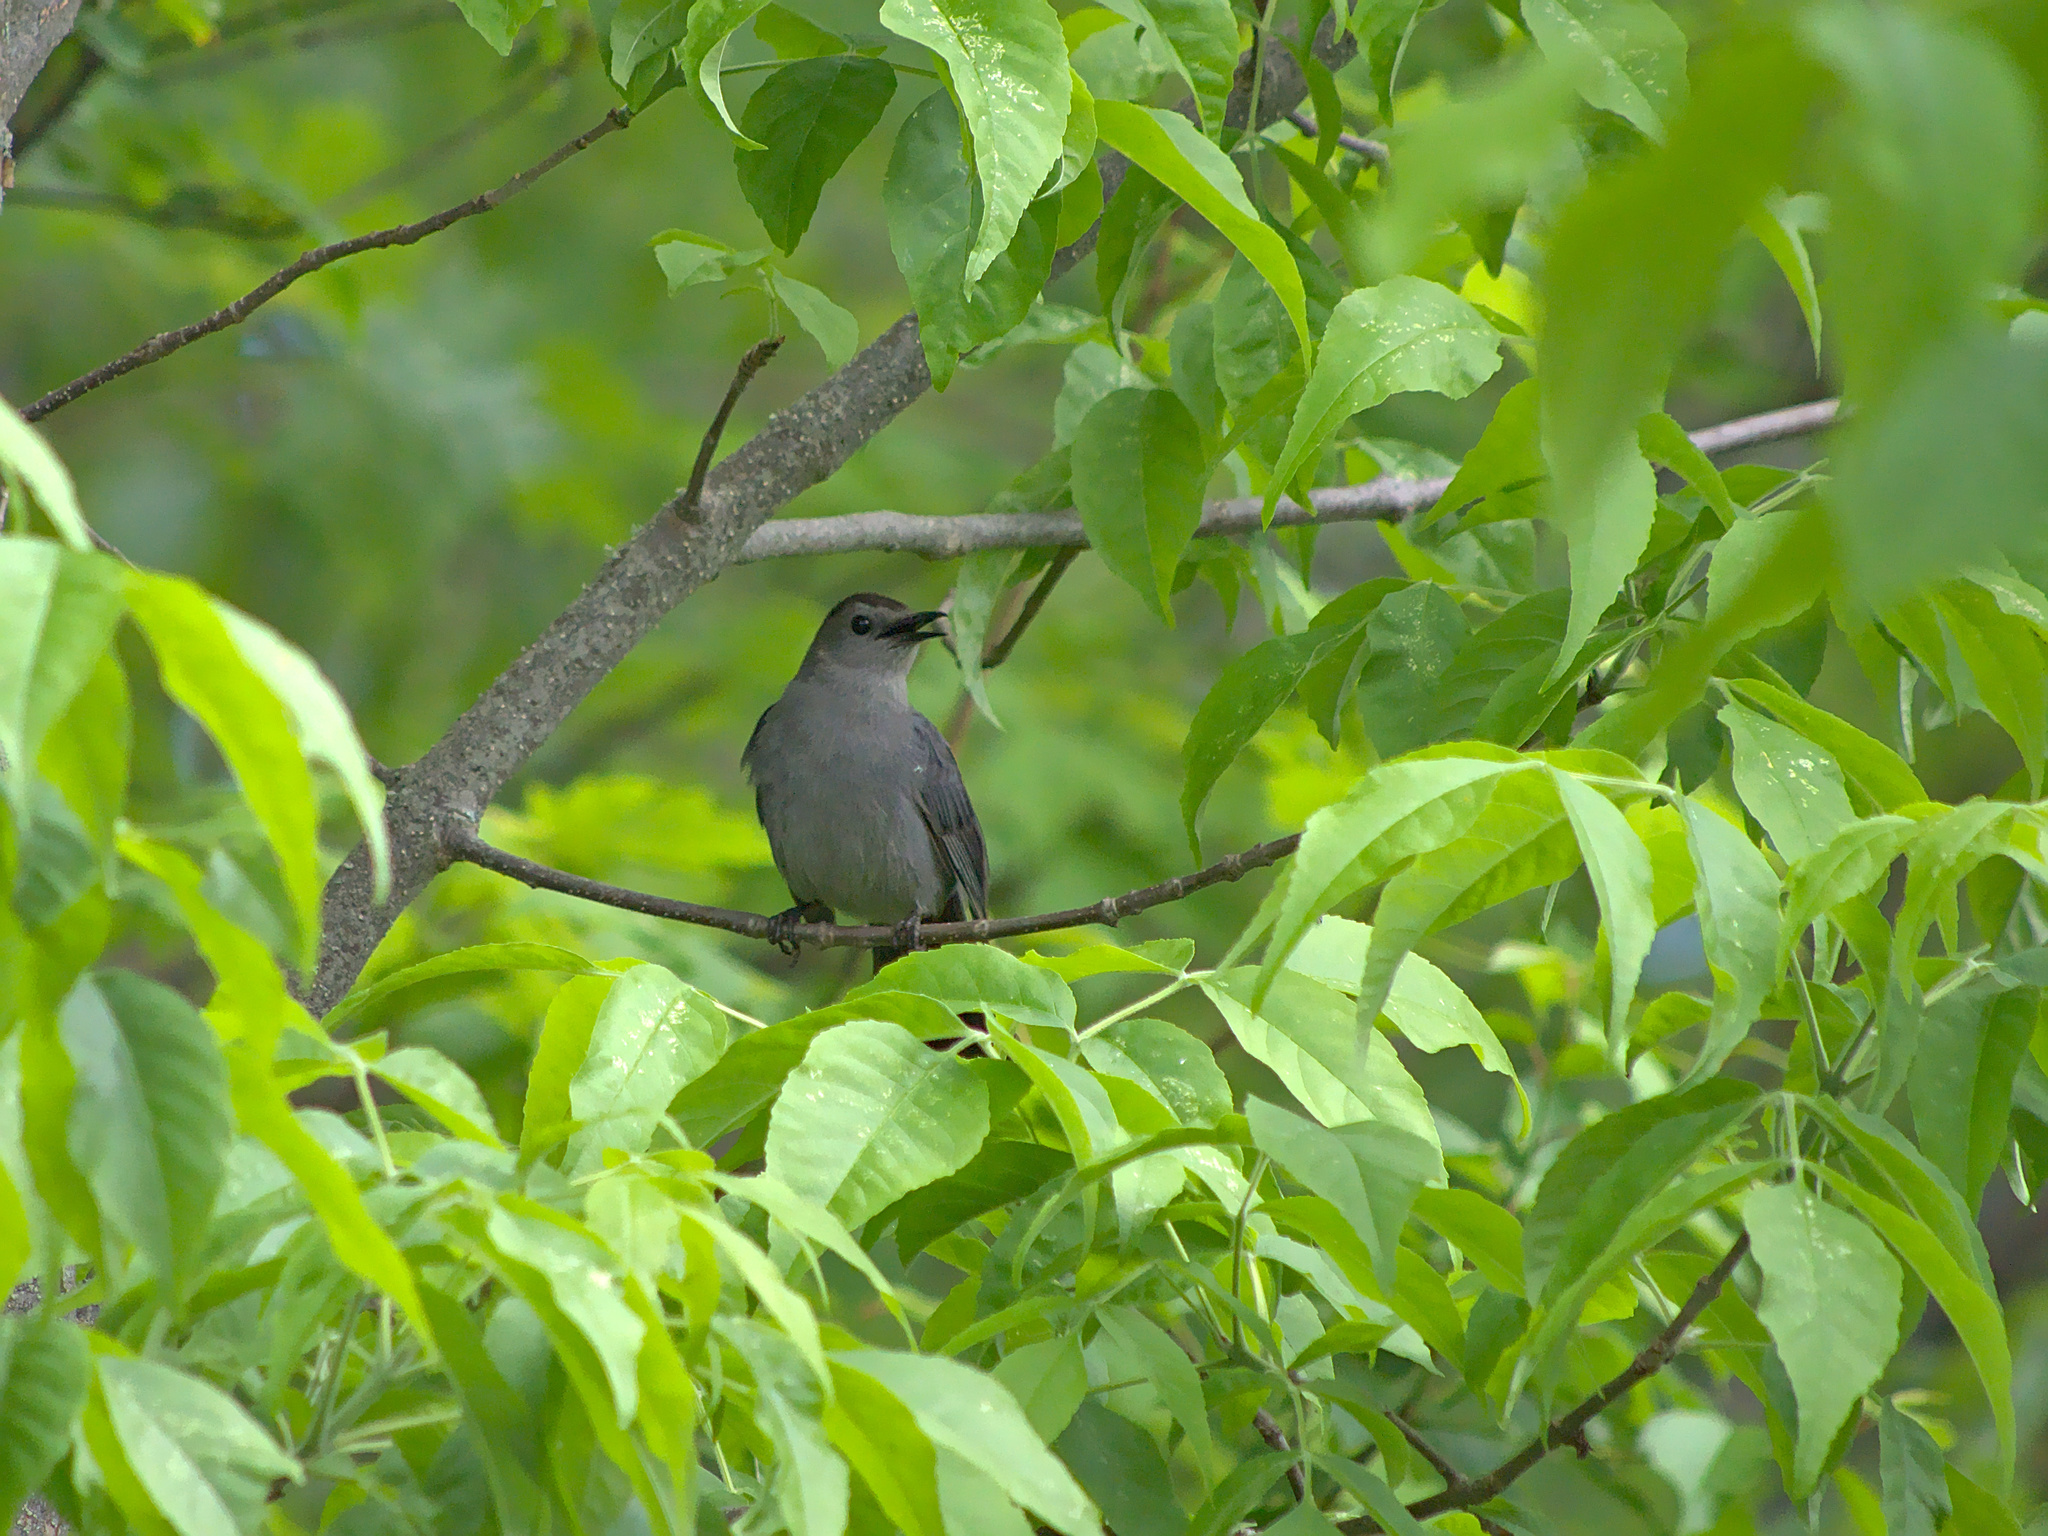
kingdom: Animalia
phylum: Chordata
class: Aves
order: Passeriformes
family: Mimidae
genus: Dumetella
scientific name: Dumetella carolinensis
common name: Gray catbird
